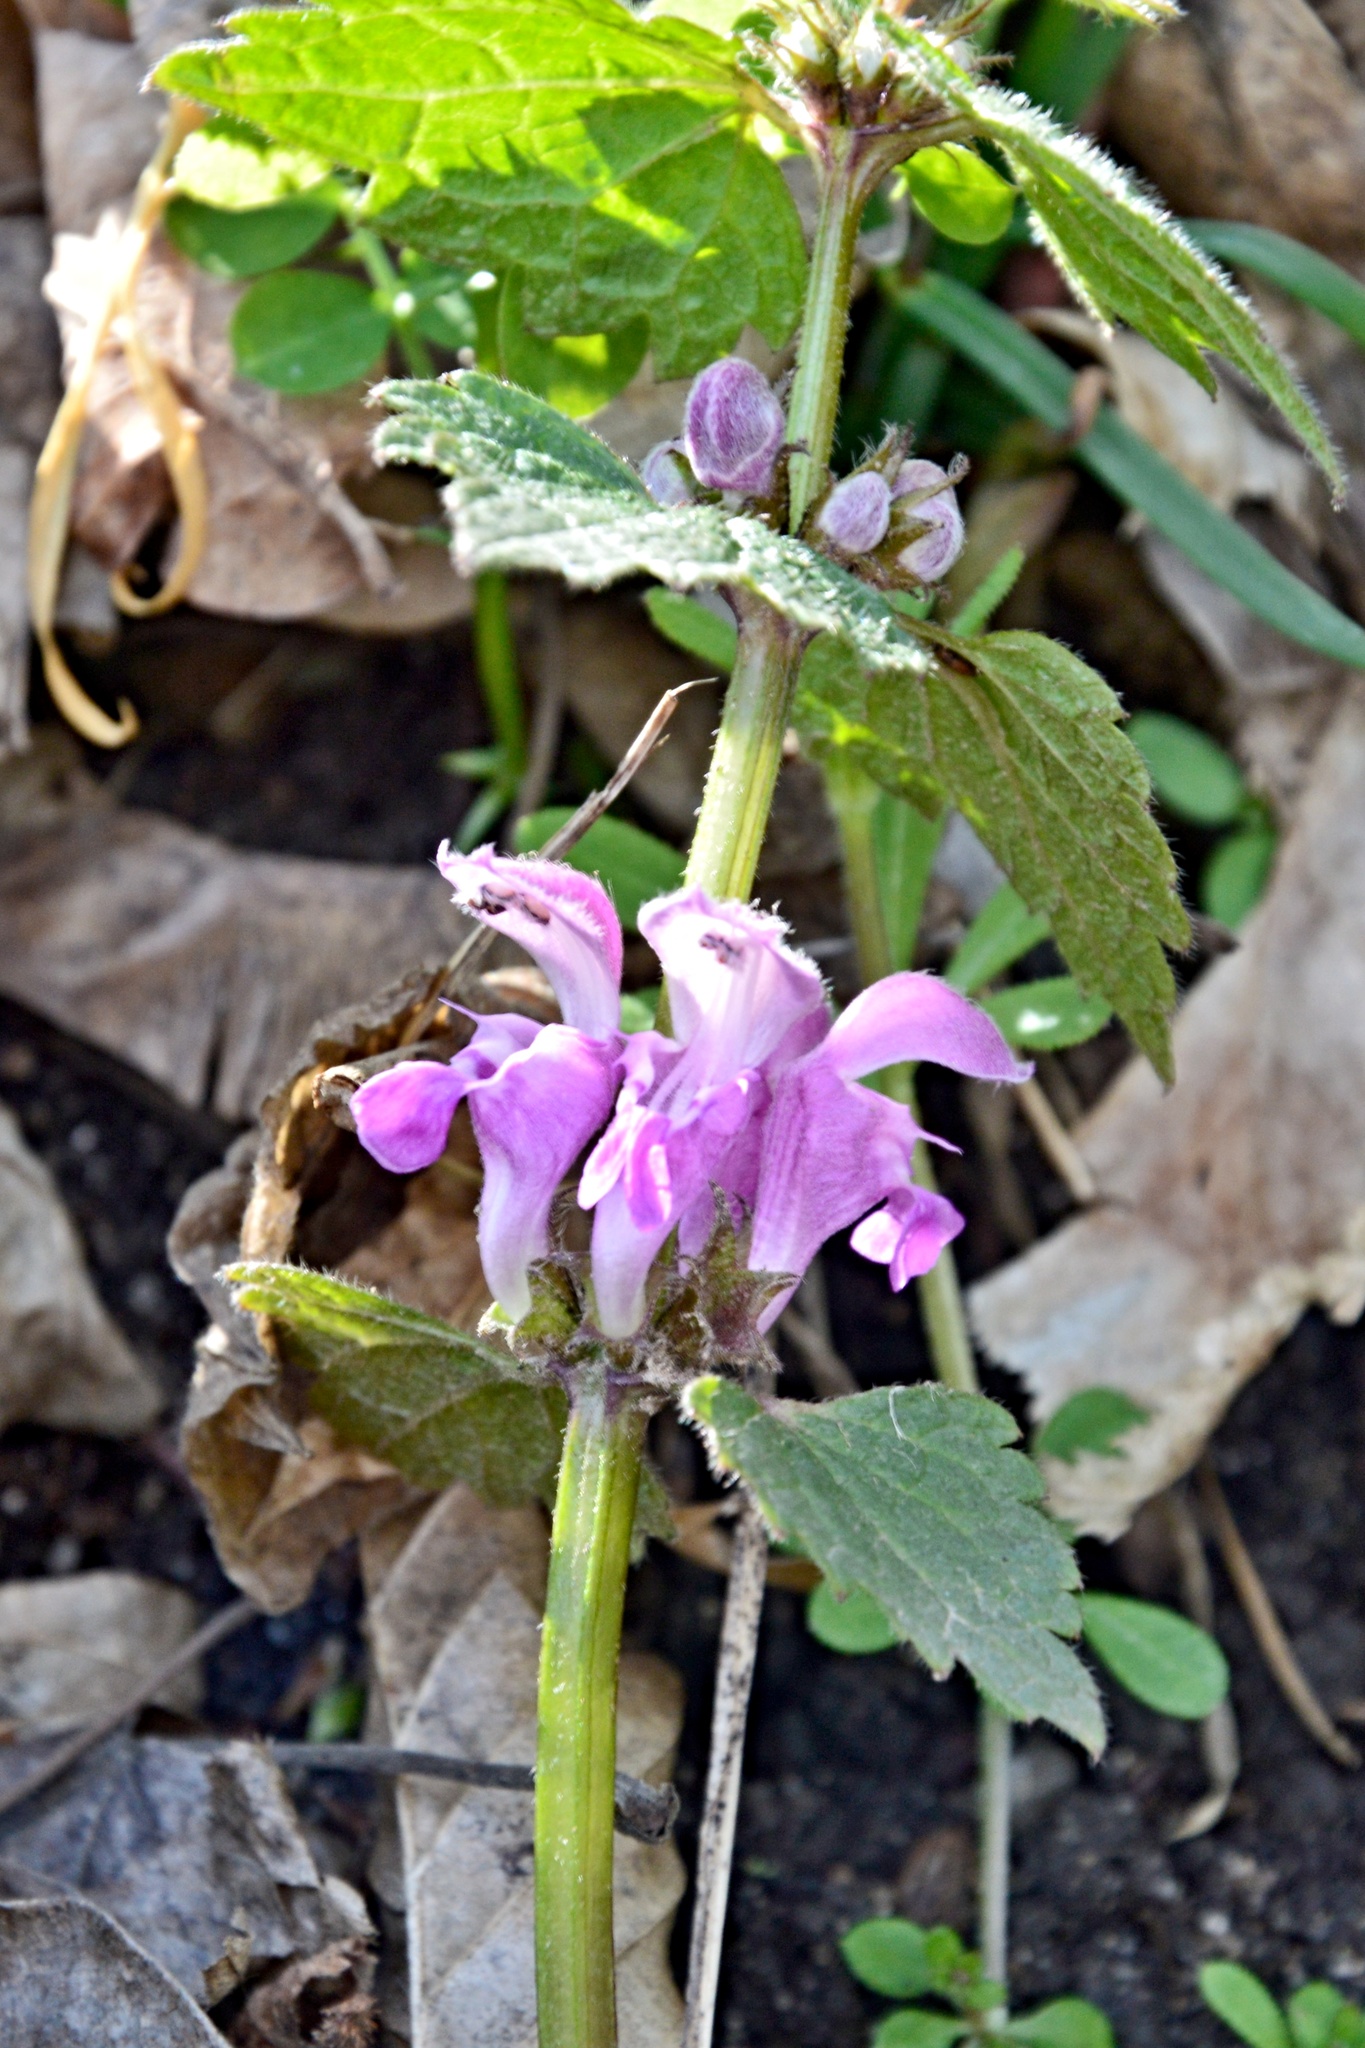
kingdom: Plantae
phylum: Tracheophyta
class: Magnoliopsida
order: Lamiales
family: Lamiaceae
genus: Lamium
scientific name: Lamium maculatum
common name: Spotted dead-nettle
